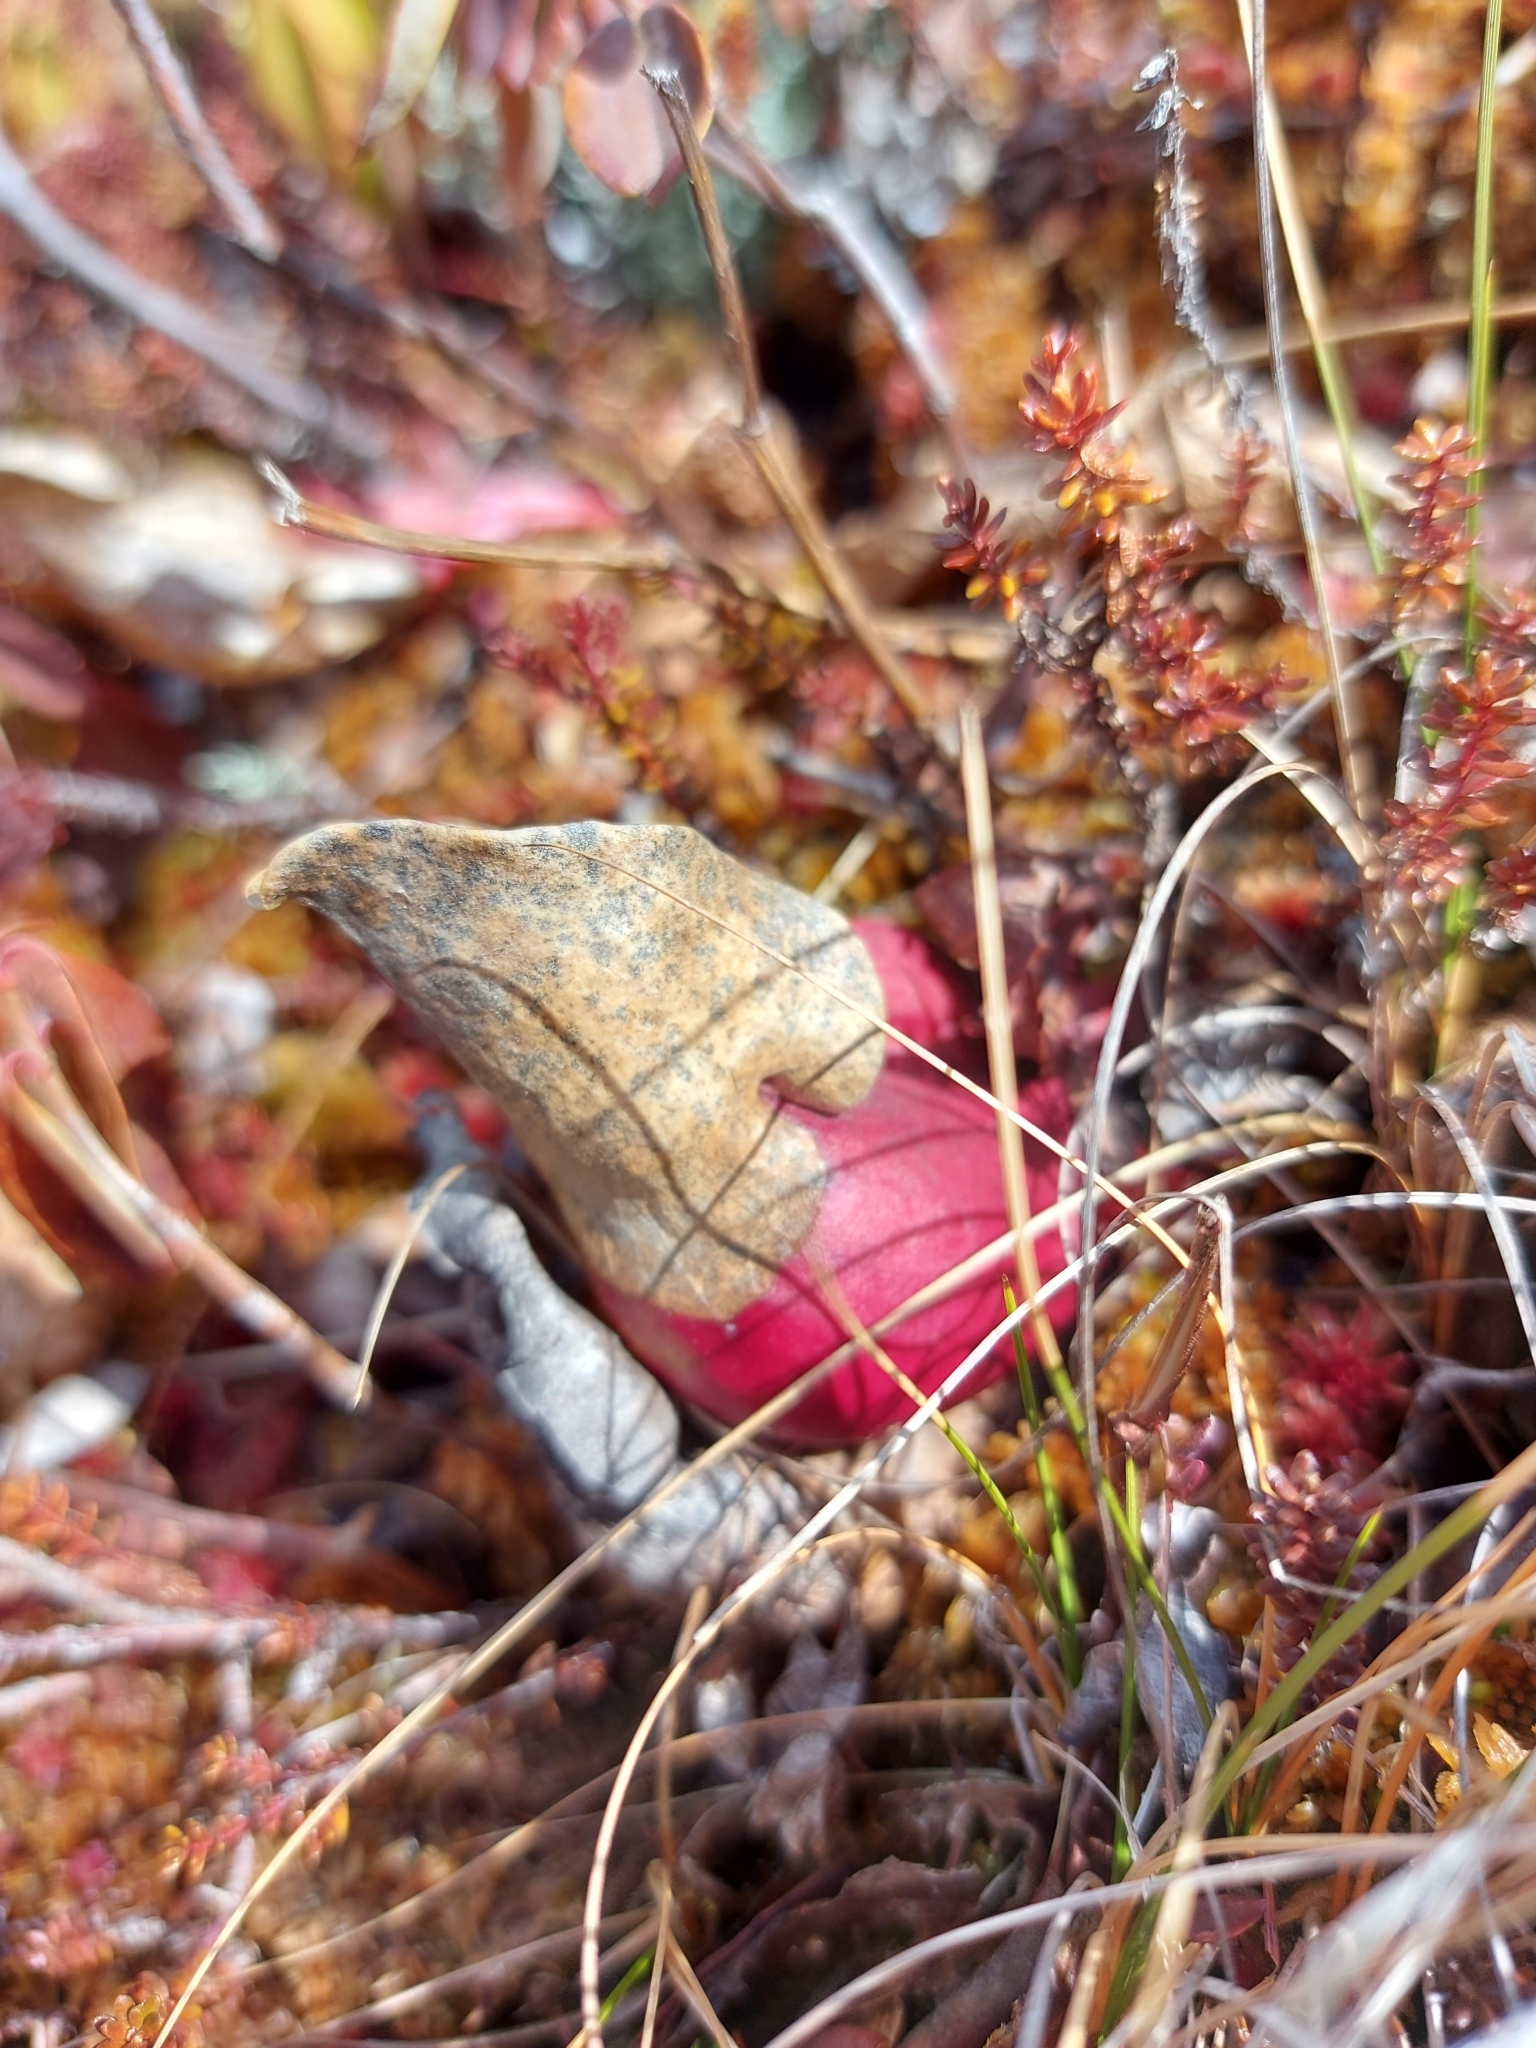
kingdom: Plantae
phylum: Tracheophyta
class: Magnoliopsida
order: Ericales
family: Sarraceniaceae
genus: Sarracenia
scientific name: Sarracenia purpurea
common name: Pitcherplant
